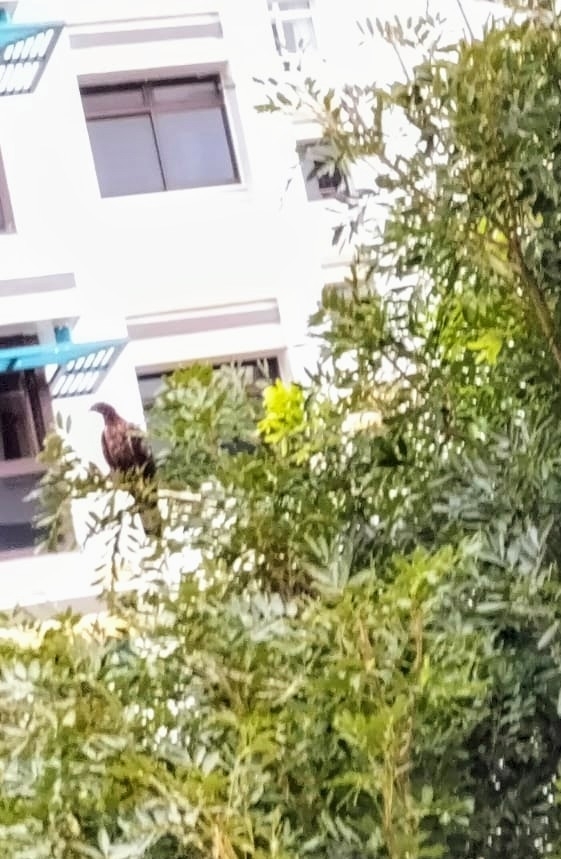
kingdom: Animalia
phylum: Chordata
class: Aves
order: Accipitriformes
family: Accipitridae
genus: Pernis
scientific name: Pernis ptilorhynchus
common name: Crested honey buzzard
